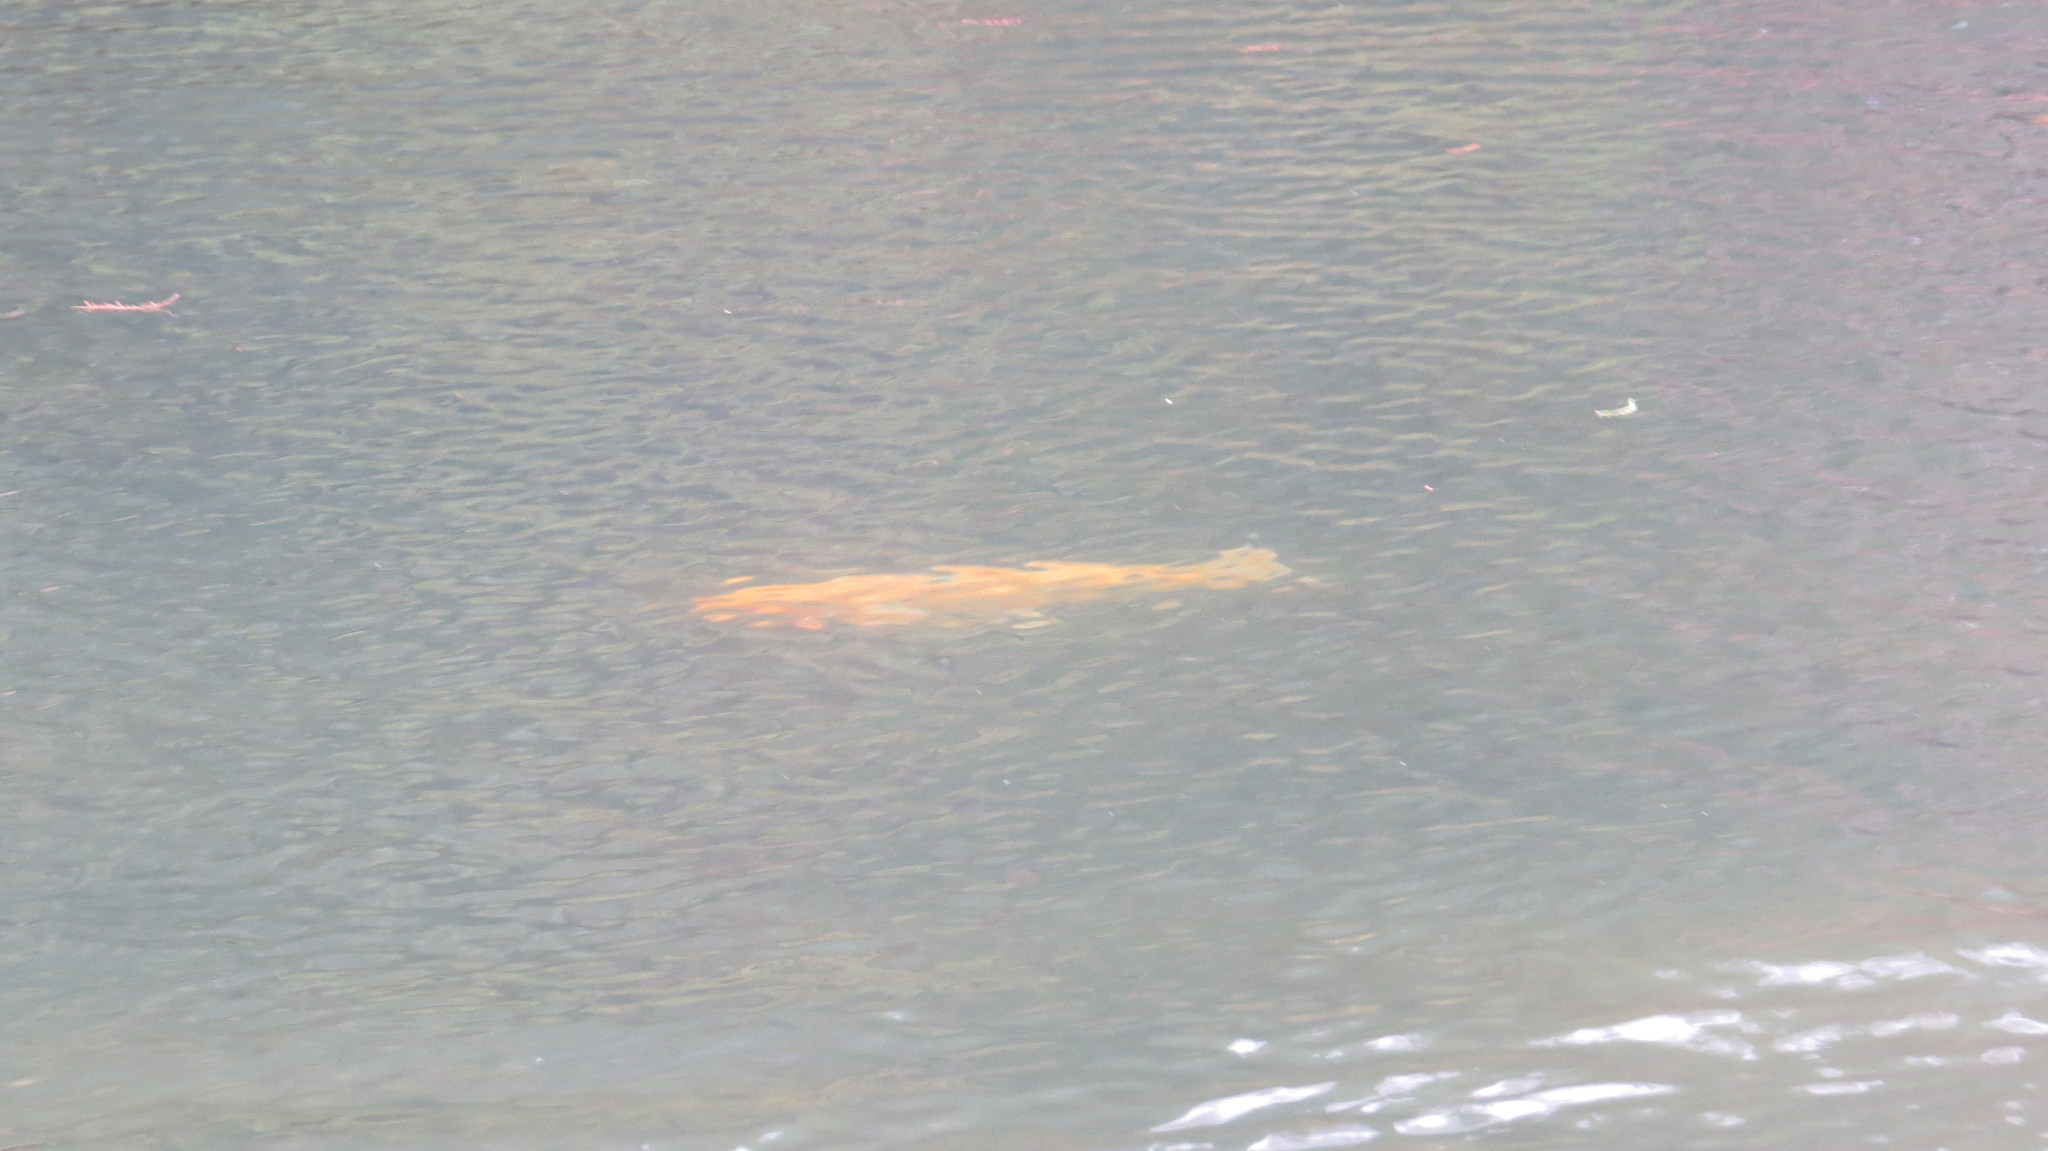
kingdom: Animalia
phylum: Chordata
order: Cypriniformes
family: Cyprinidae
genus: Cyprinus
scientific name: Cyprinus rubrofuscus
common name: Koi
